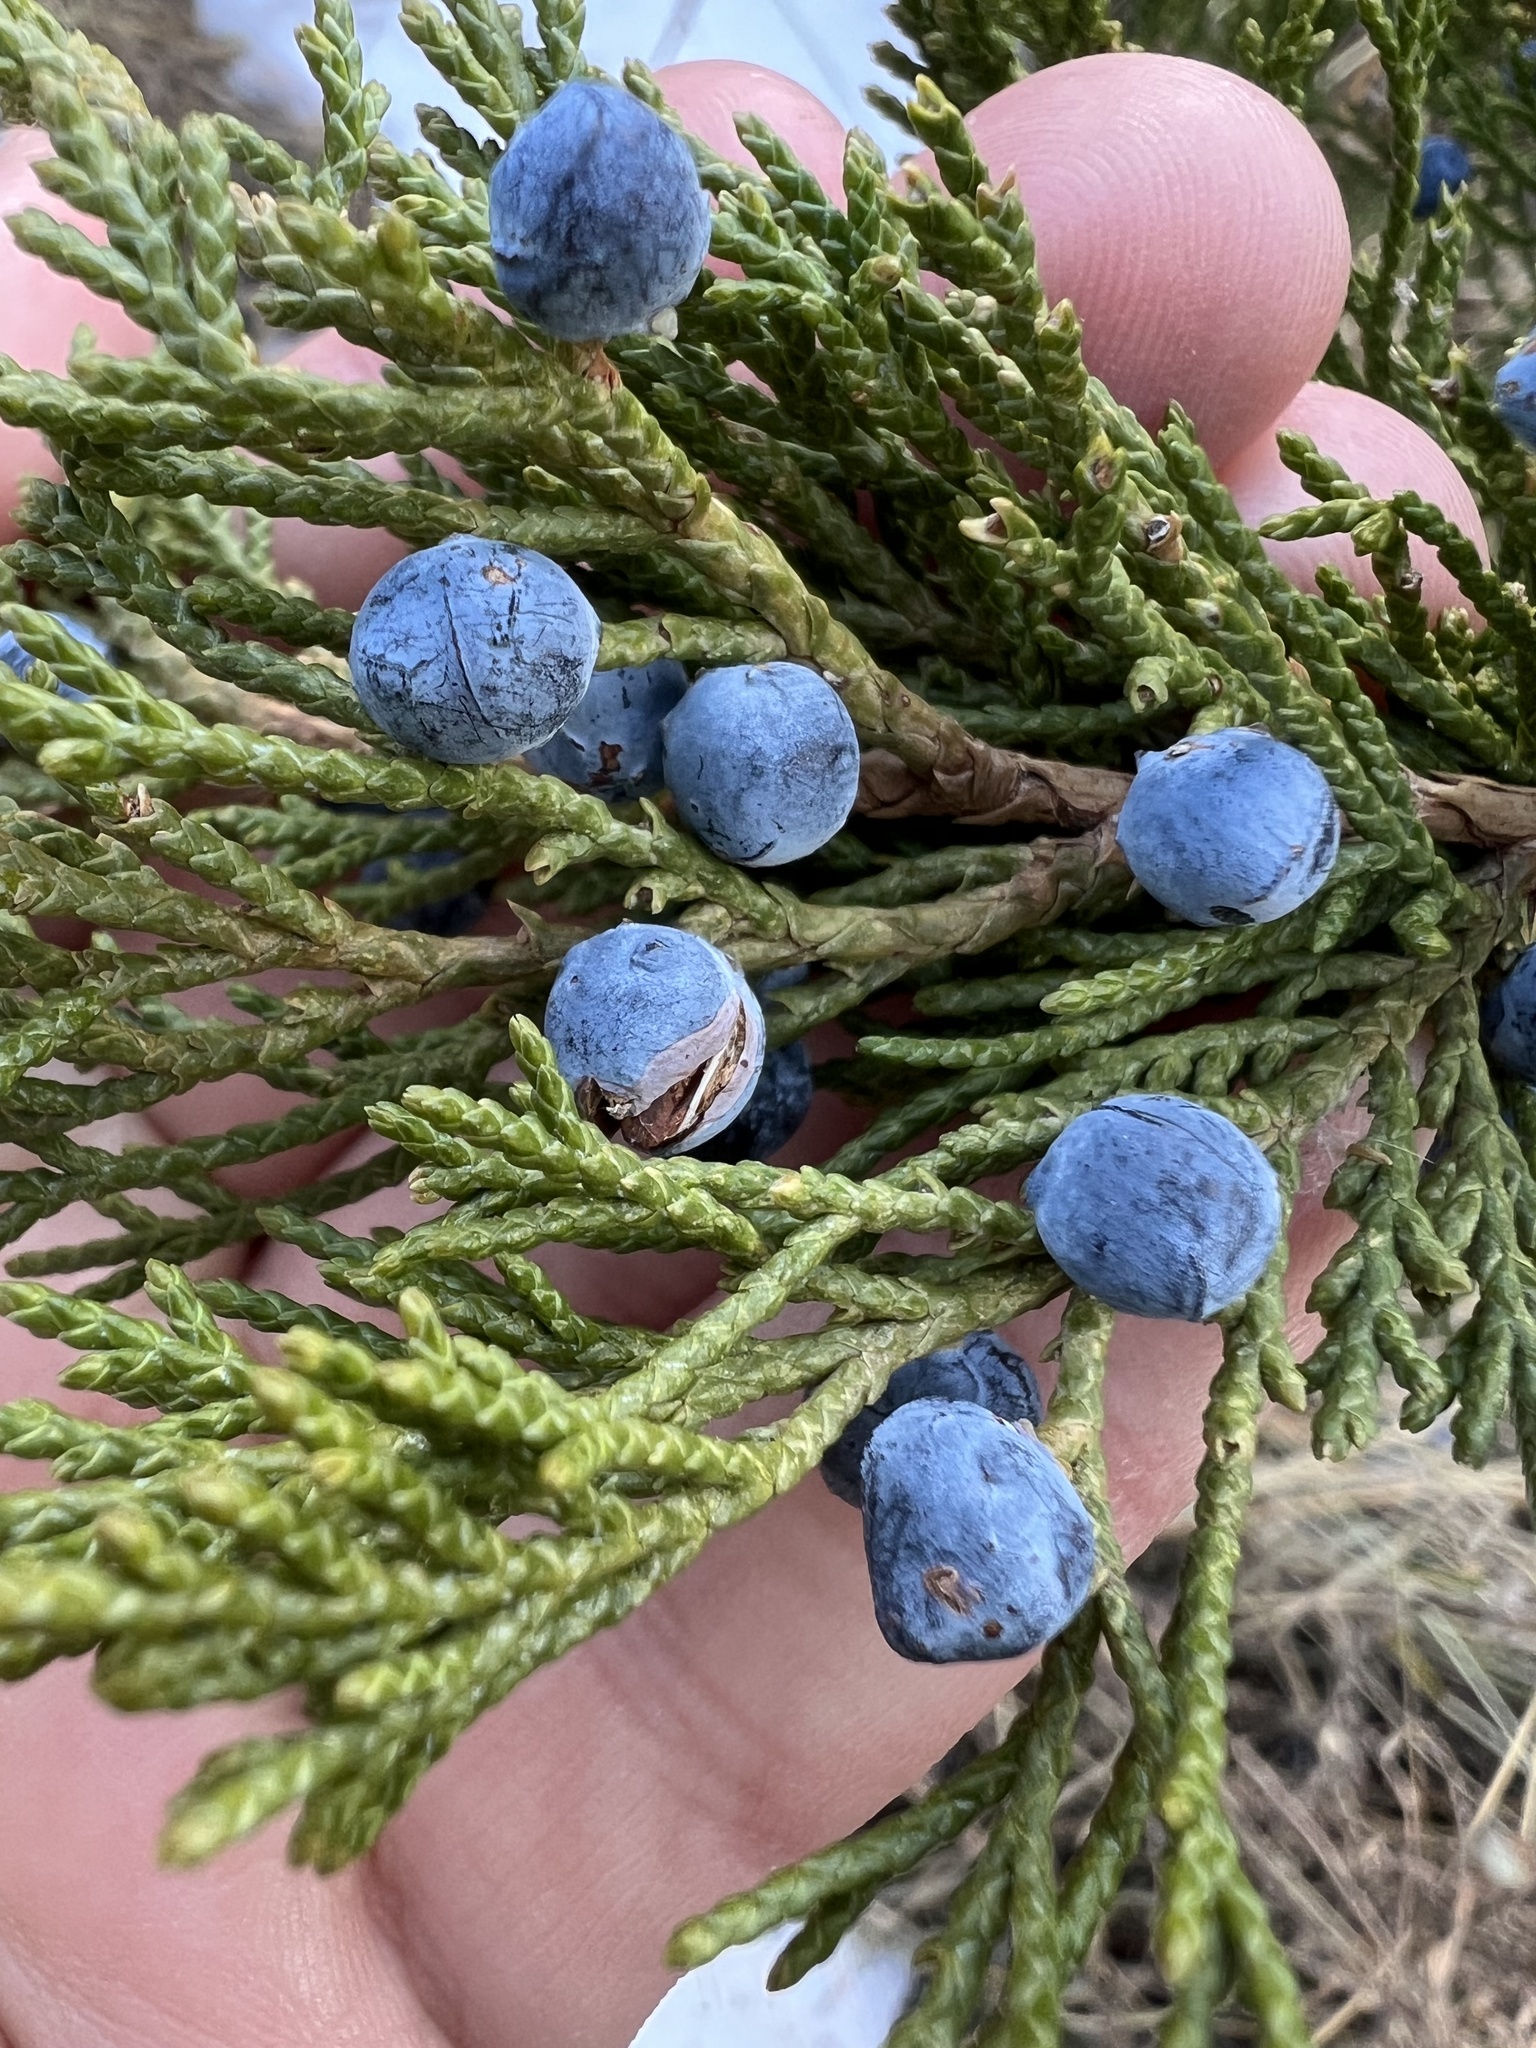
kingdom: Plantae
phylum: Tracheophyta
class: Pinopsida
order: Pinales
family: Cupressaceae
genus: Juniperus
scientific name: Juniperus scopulorum
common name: Rocky mountain juniper
